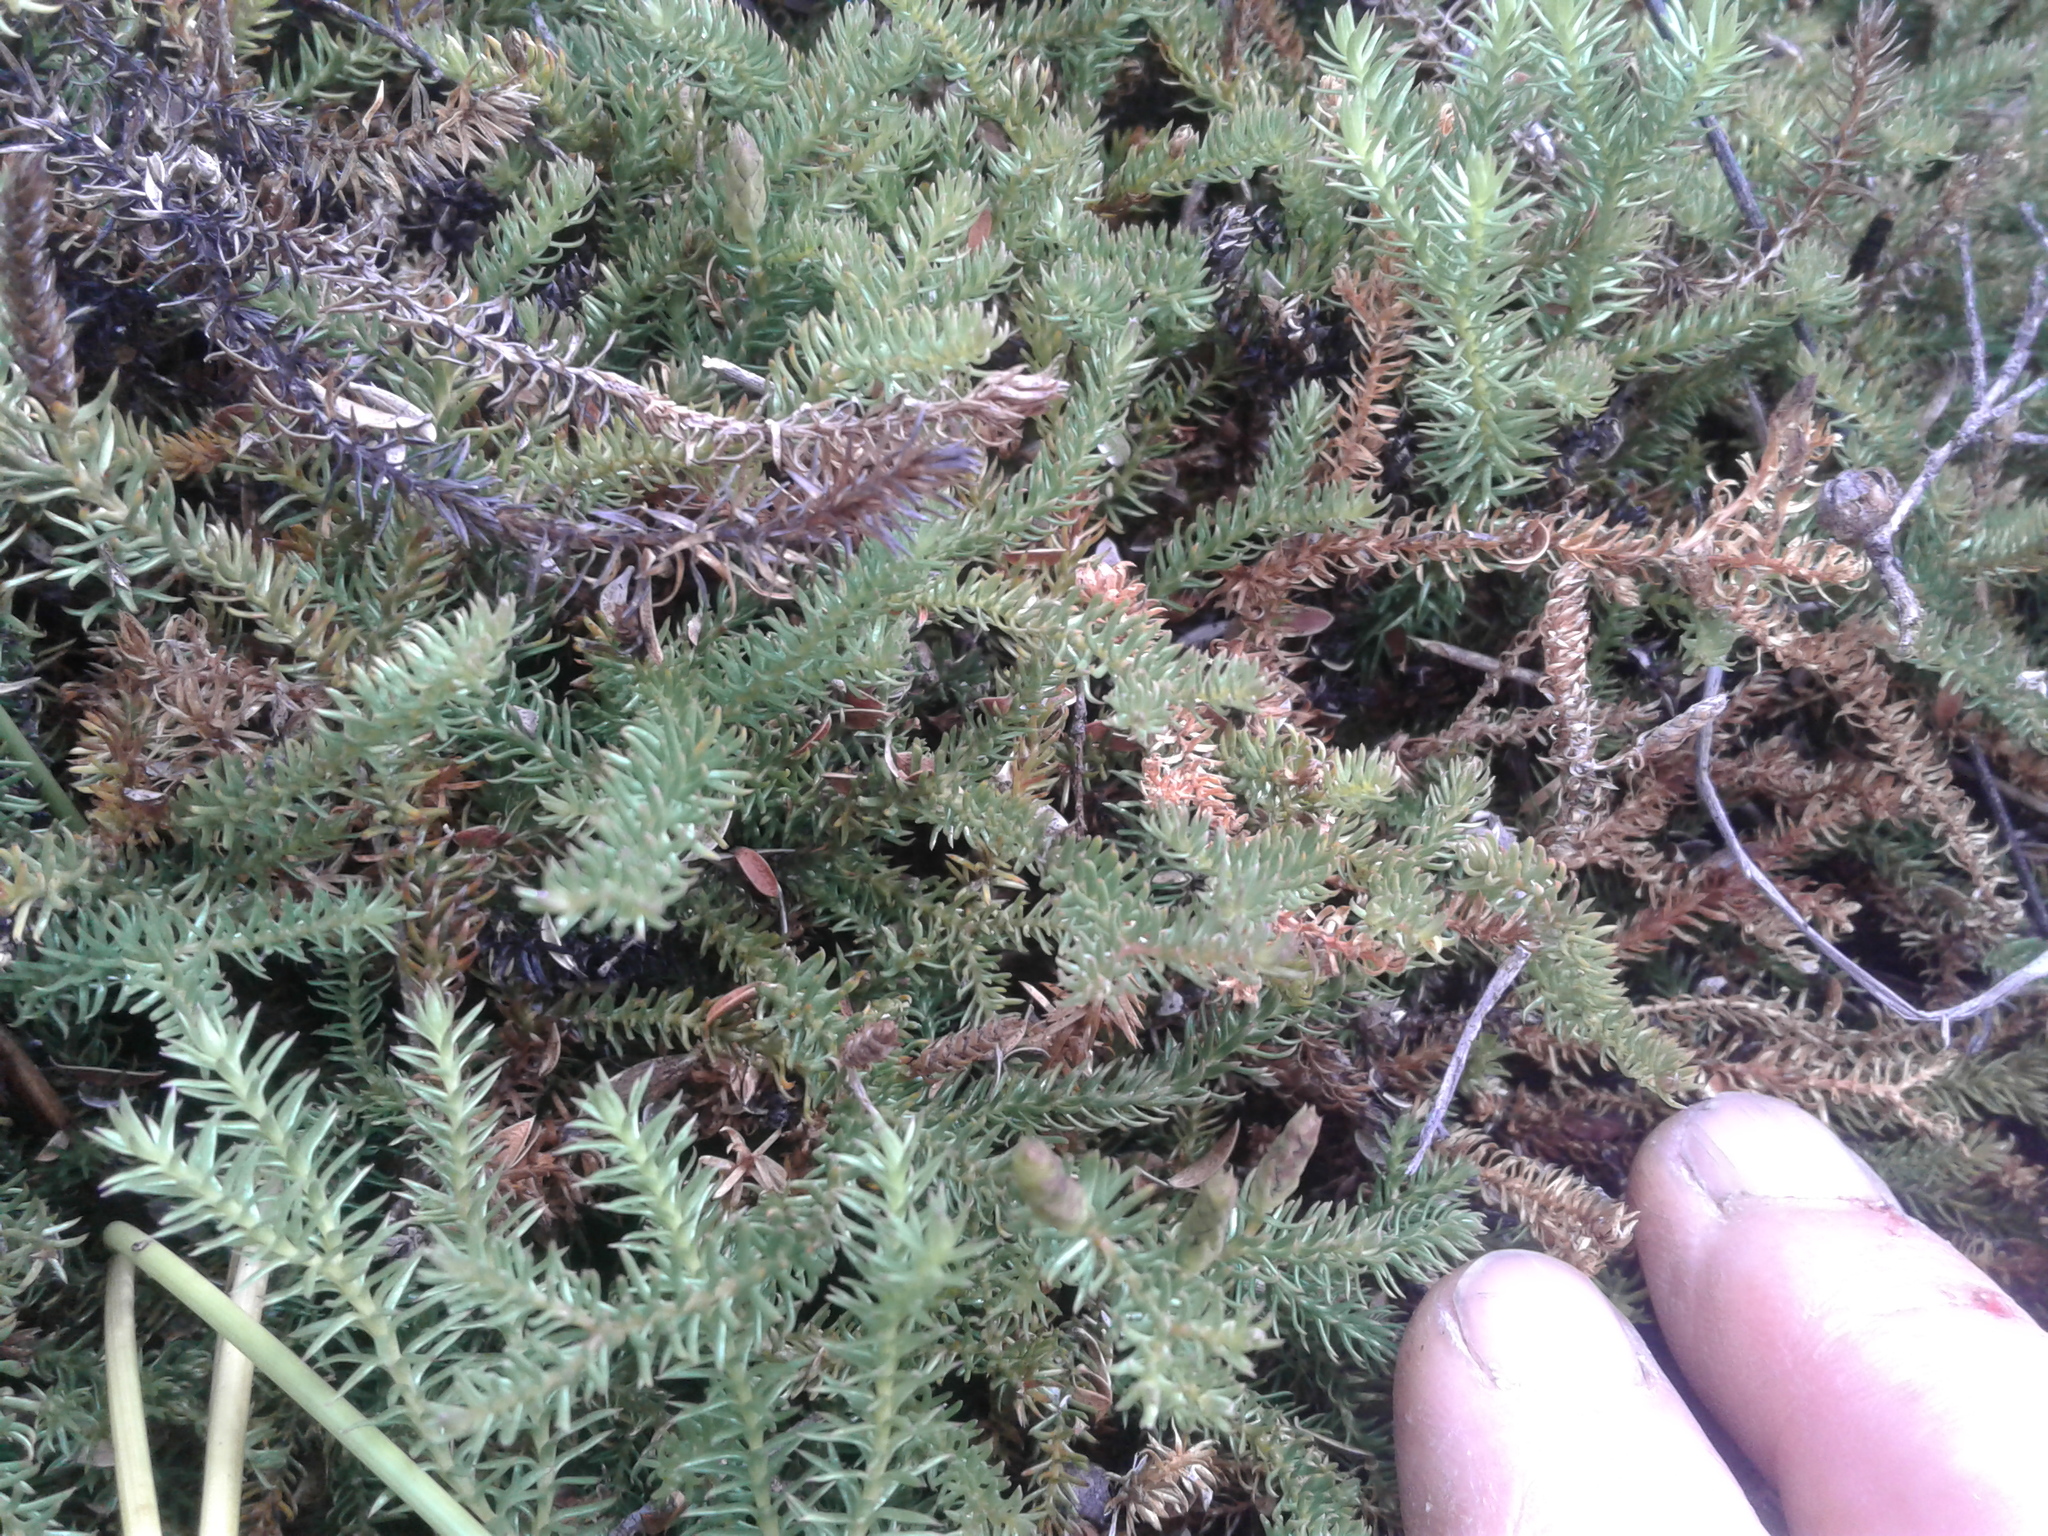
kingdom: Plantae
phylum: Tracheophyta
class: Lycopodiopsida
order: Lycopodiales
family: Lycopodiaceae
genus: Lateristachys
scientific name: Lateristachys diffusa
